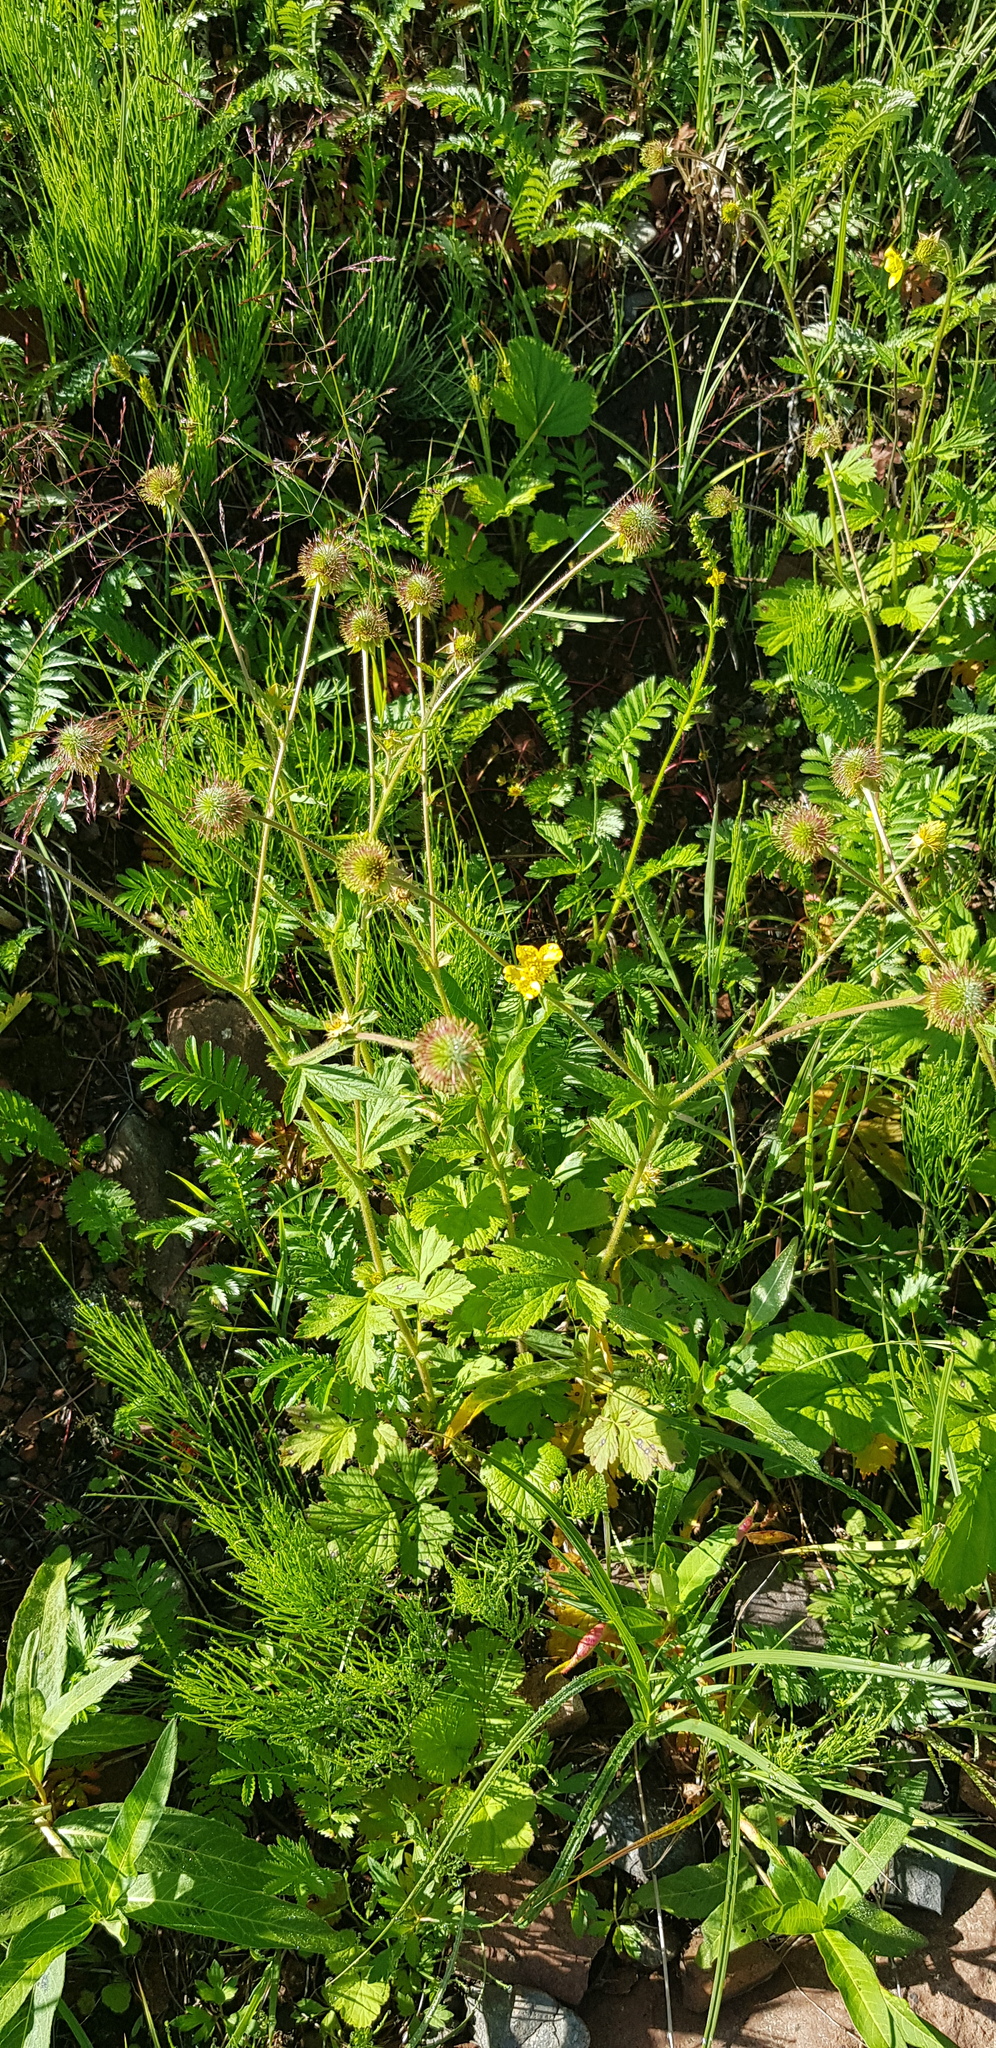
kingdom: Plantae
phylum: Tracheophyta
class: Magnoliopsida
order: Rosales
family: Rosaceae
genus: Geum
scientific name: Geum aleppicum
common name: Yellow avens
